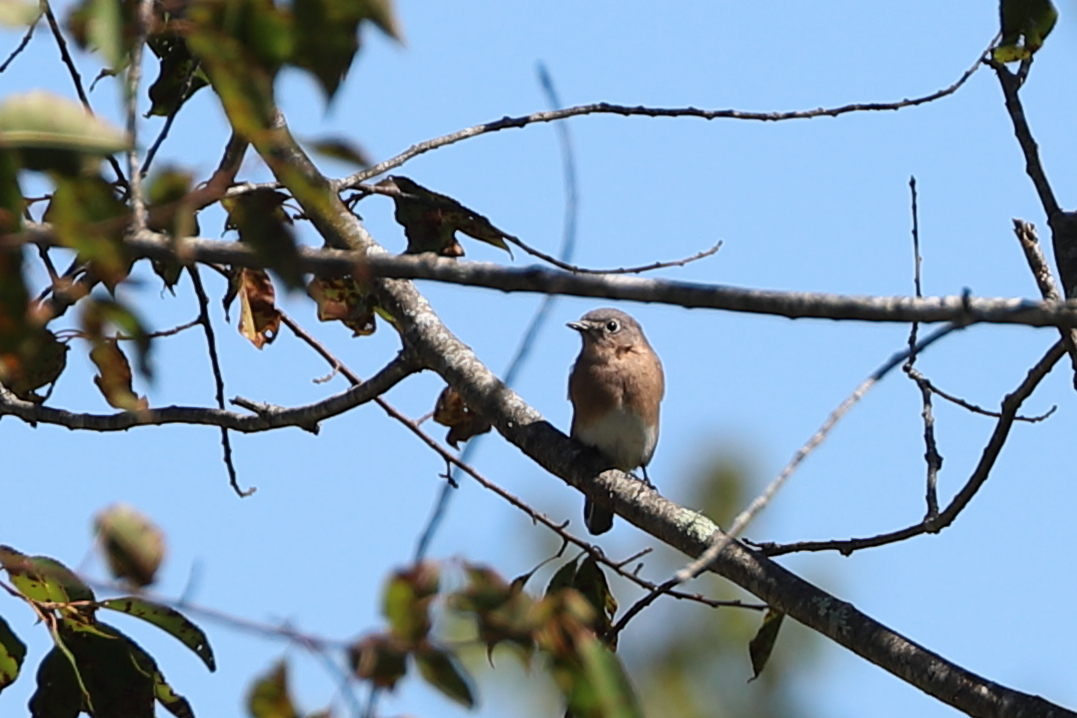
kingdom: Animalia
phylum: Chordata
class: Aves
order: Passeriformes
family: Turdidae
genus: Sialia
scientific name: Sialia sialis
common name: Eastern bluebird
